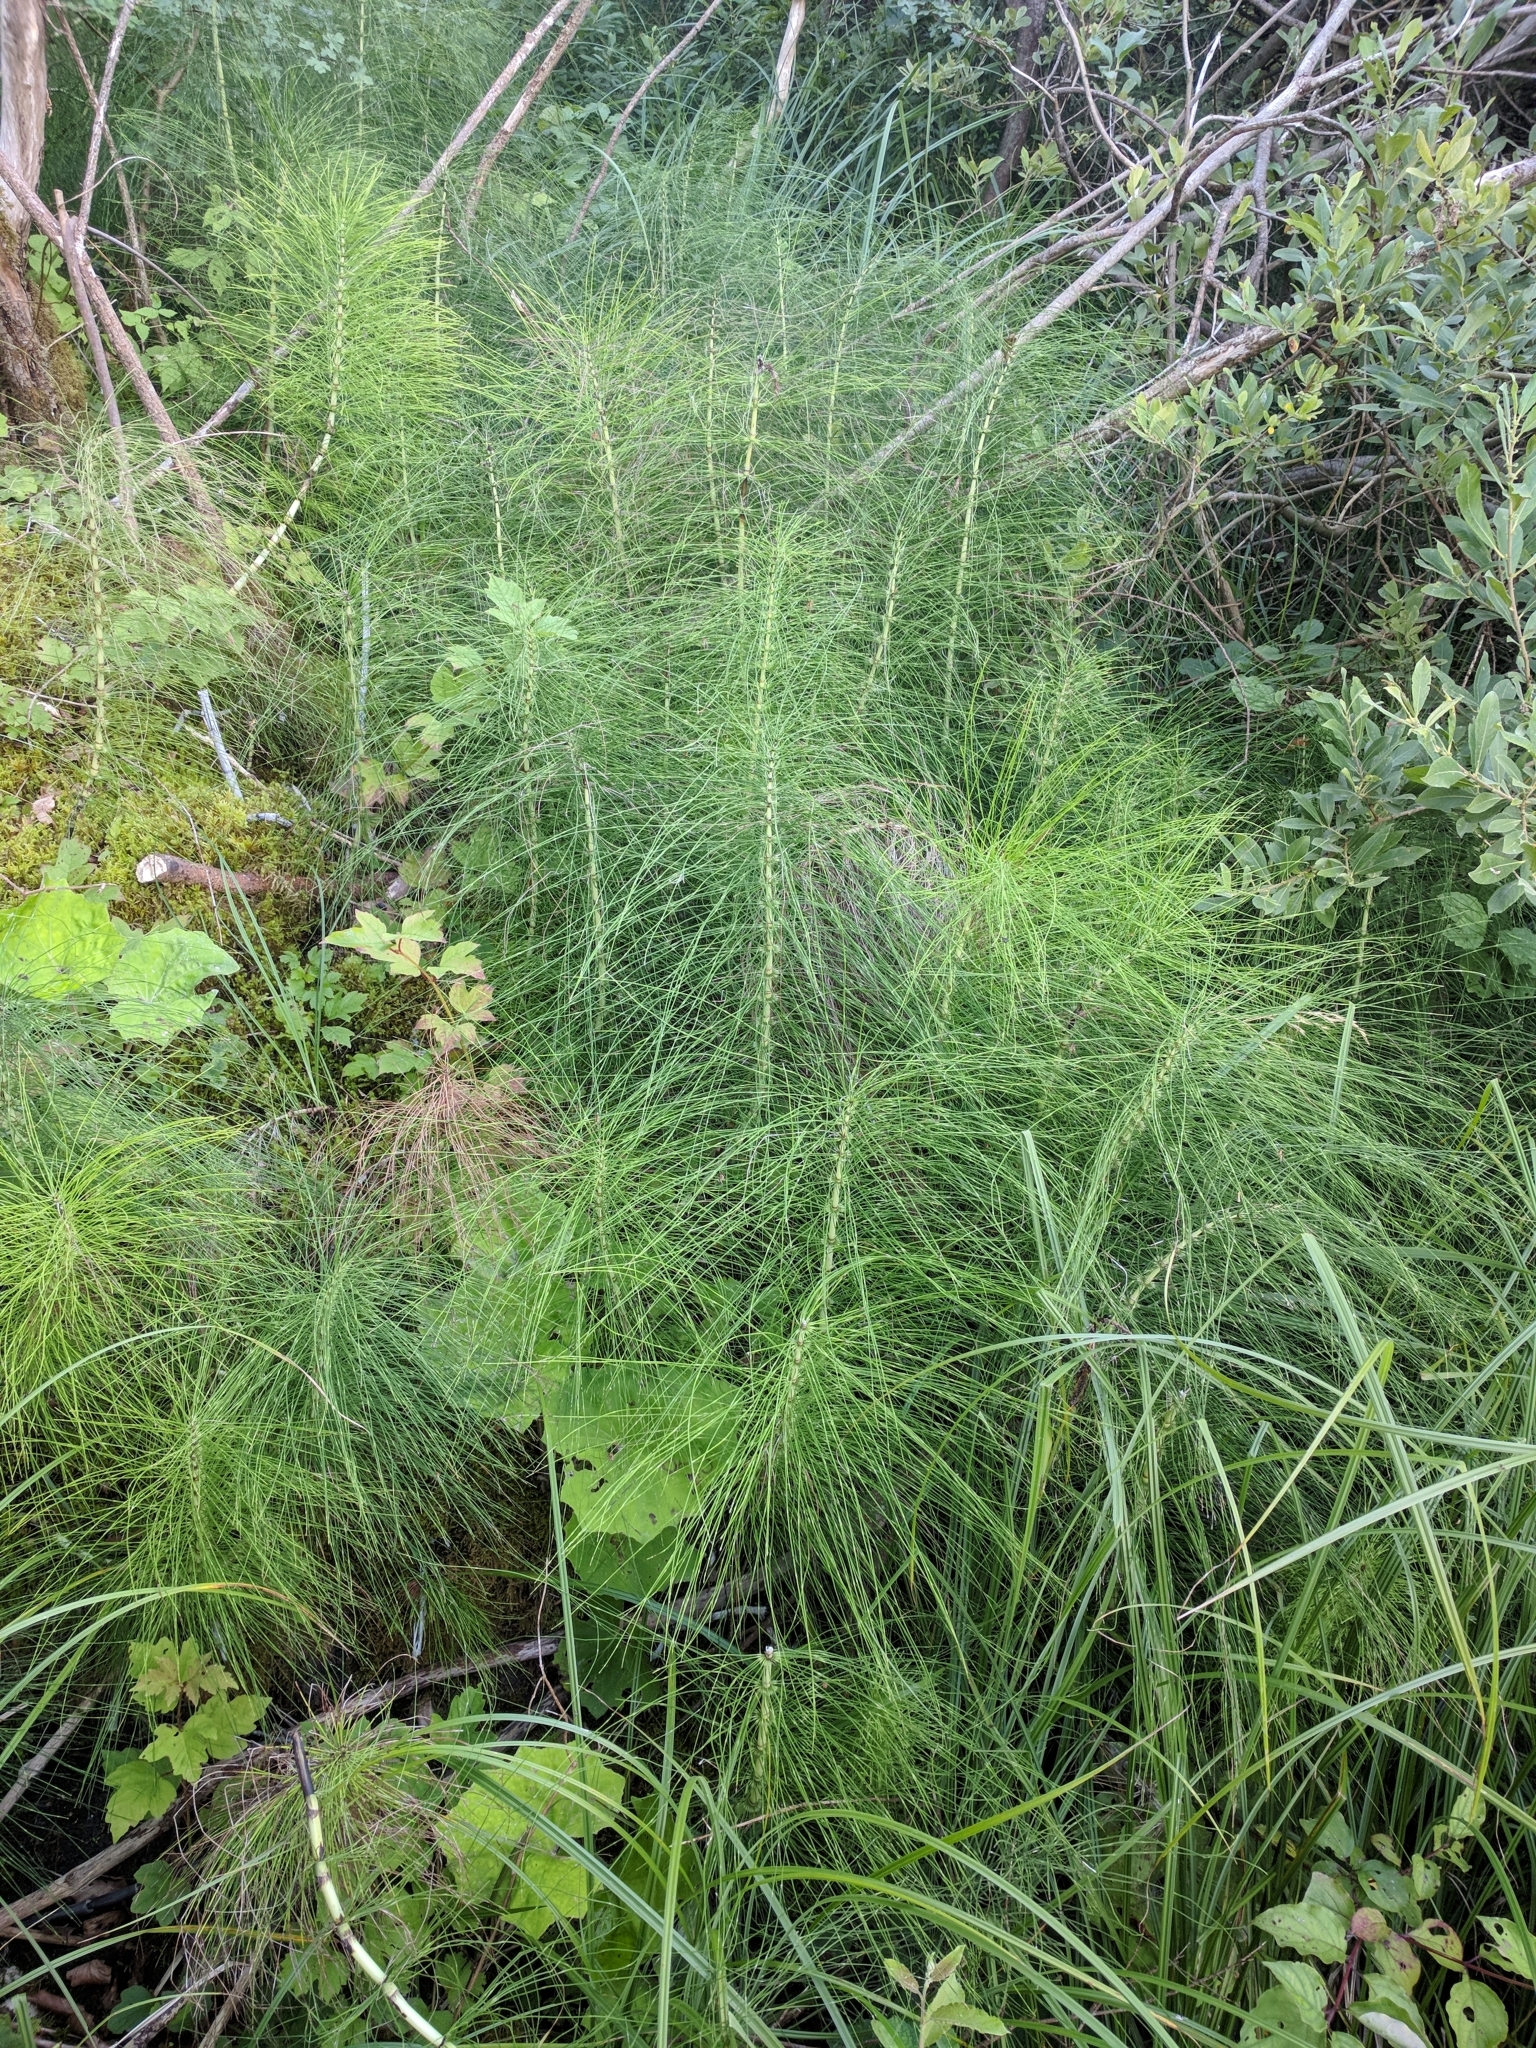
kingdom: Plantae
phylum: Tracheophyta
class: Polypodiopsida
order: Equisetales
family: Equisetaceae
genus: Equisetum
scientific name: Equisetum telmateia
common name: Great horsetail
